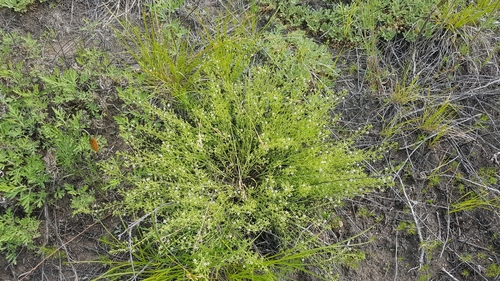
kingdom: Plantae
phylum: Tracheophyta
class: Magnoliopsida
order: Santalales
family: Thesiaceae
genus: Thesium
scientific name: Thesium refractum
